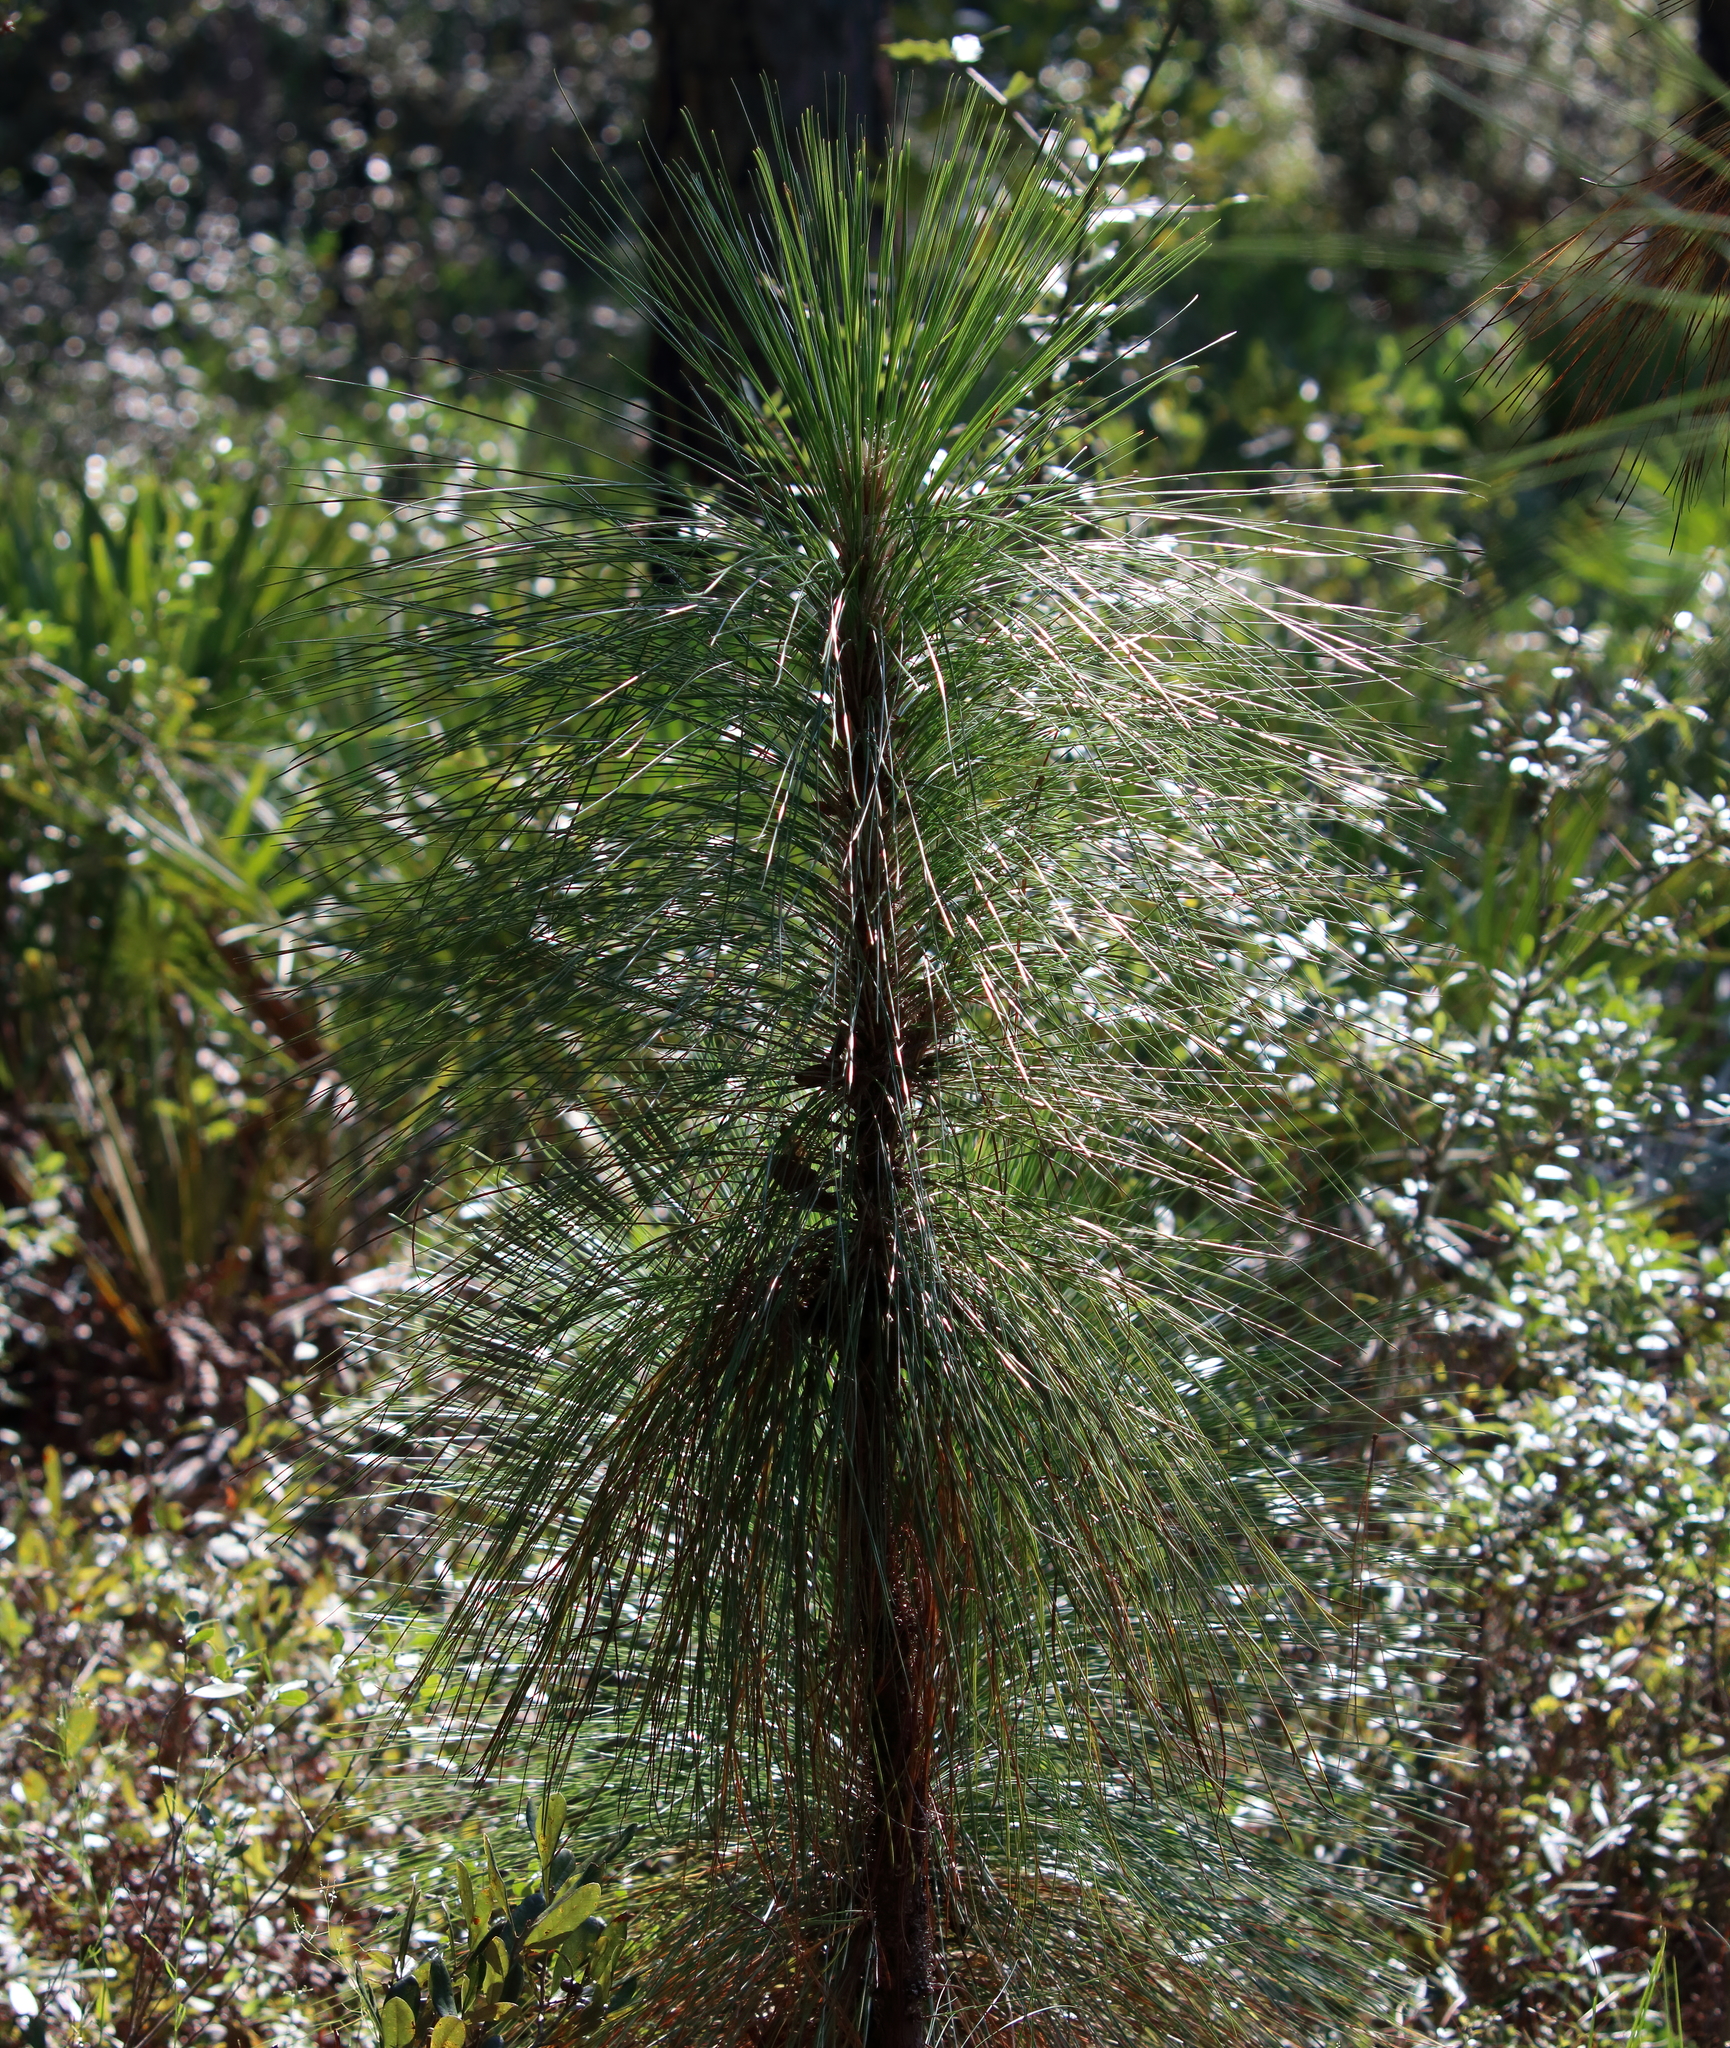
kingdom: Plantae
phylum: Tracheophyta
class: Pinopsida
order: Pinales
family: Pinaceae
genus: Pinus
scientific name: Pinus palustris
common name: Longleaf pine
